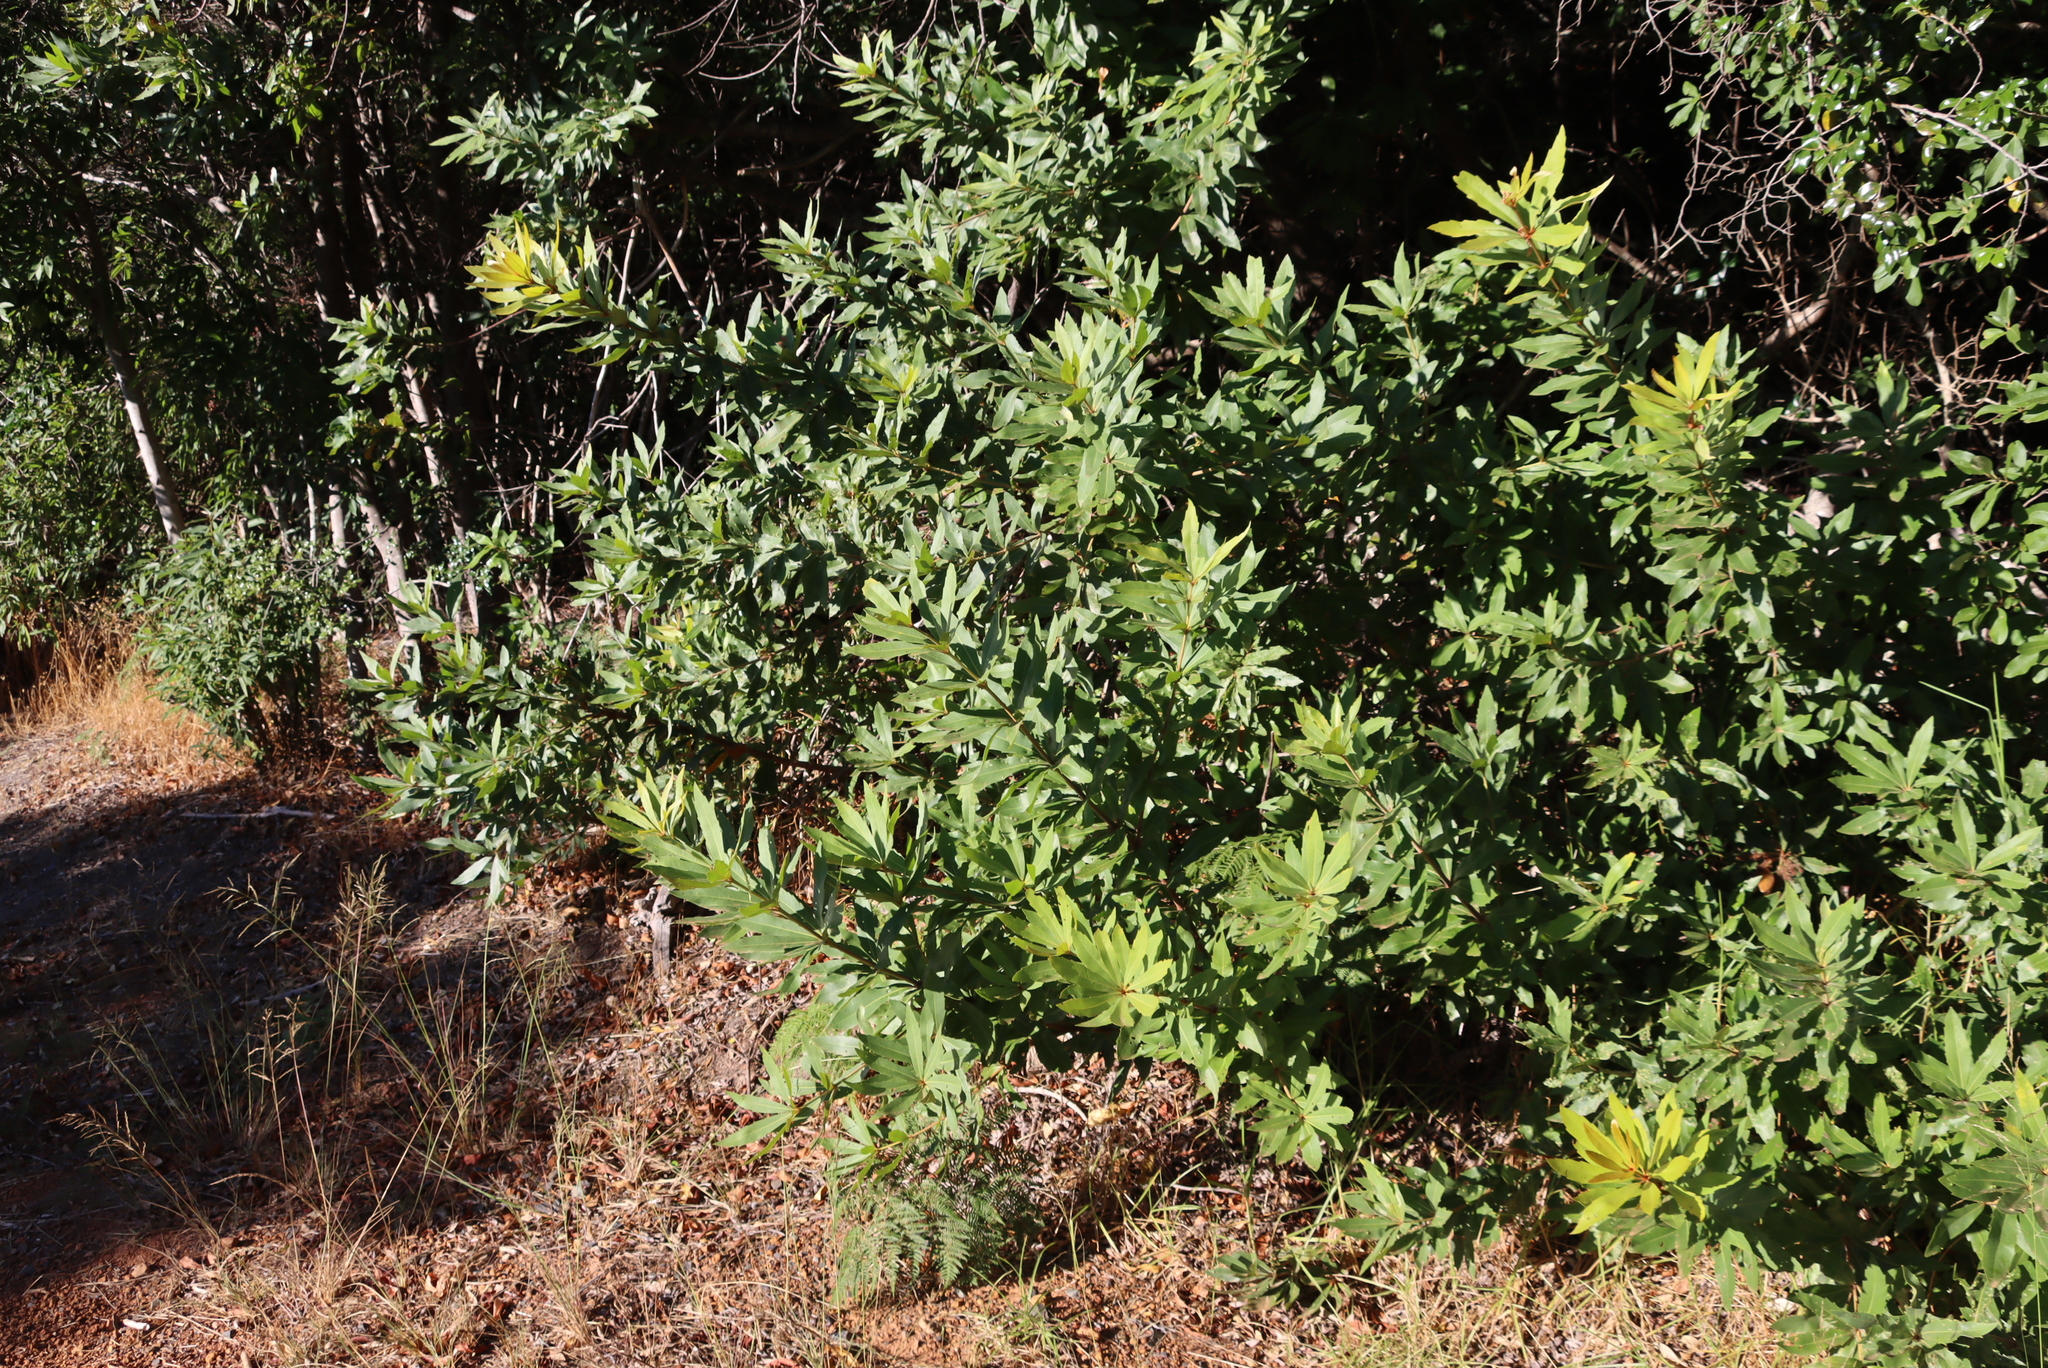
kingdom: Plantae
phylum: Tracheophyta
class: Magnoliopsida
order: Proteales
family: Proteaceae
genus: Brabejum
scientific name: Brabejum stellatifolium
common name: Wild almond
